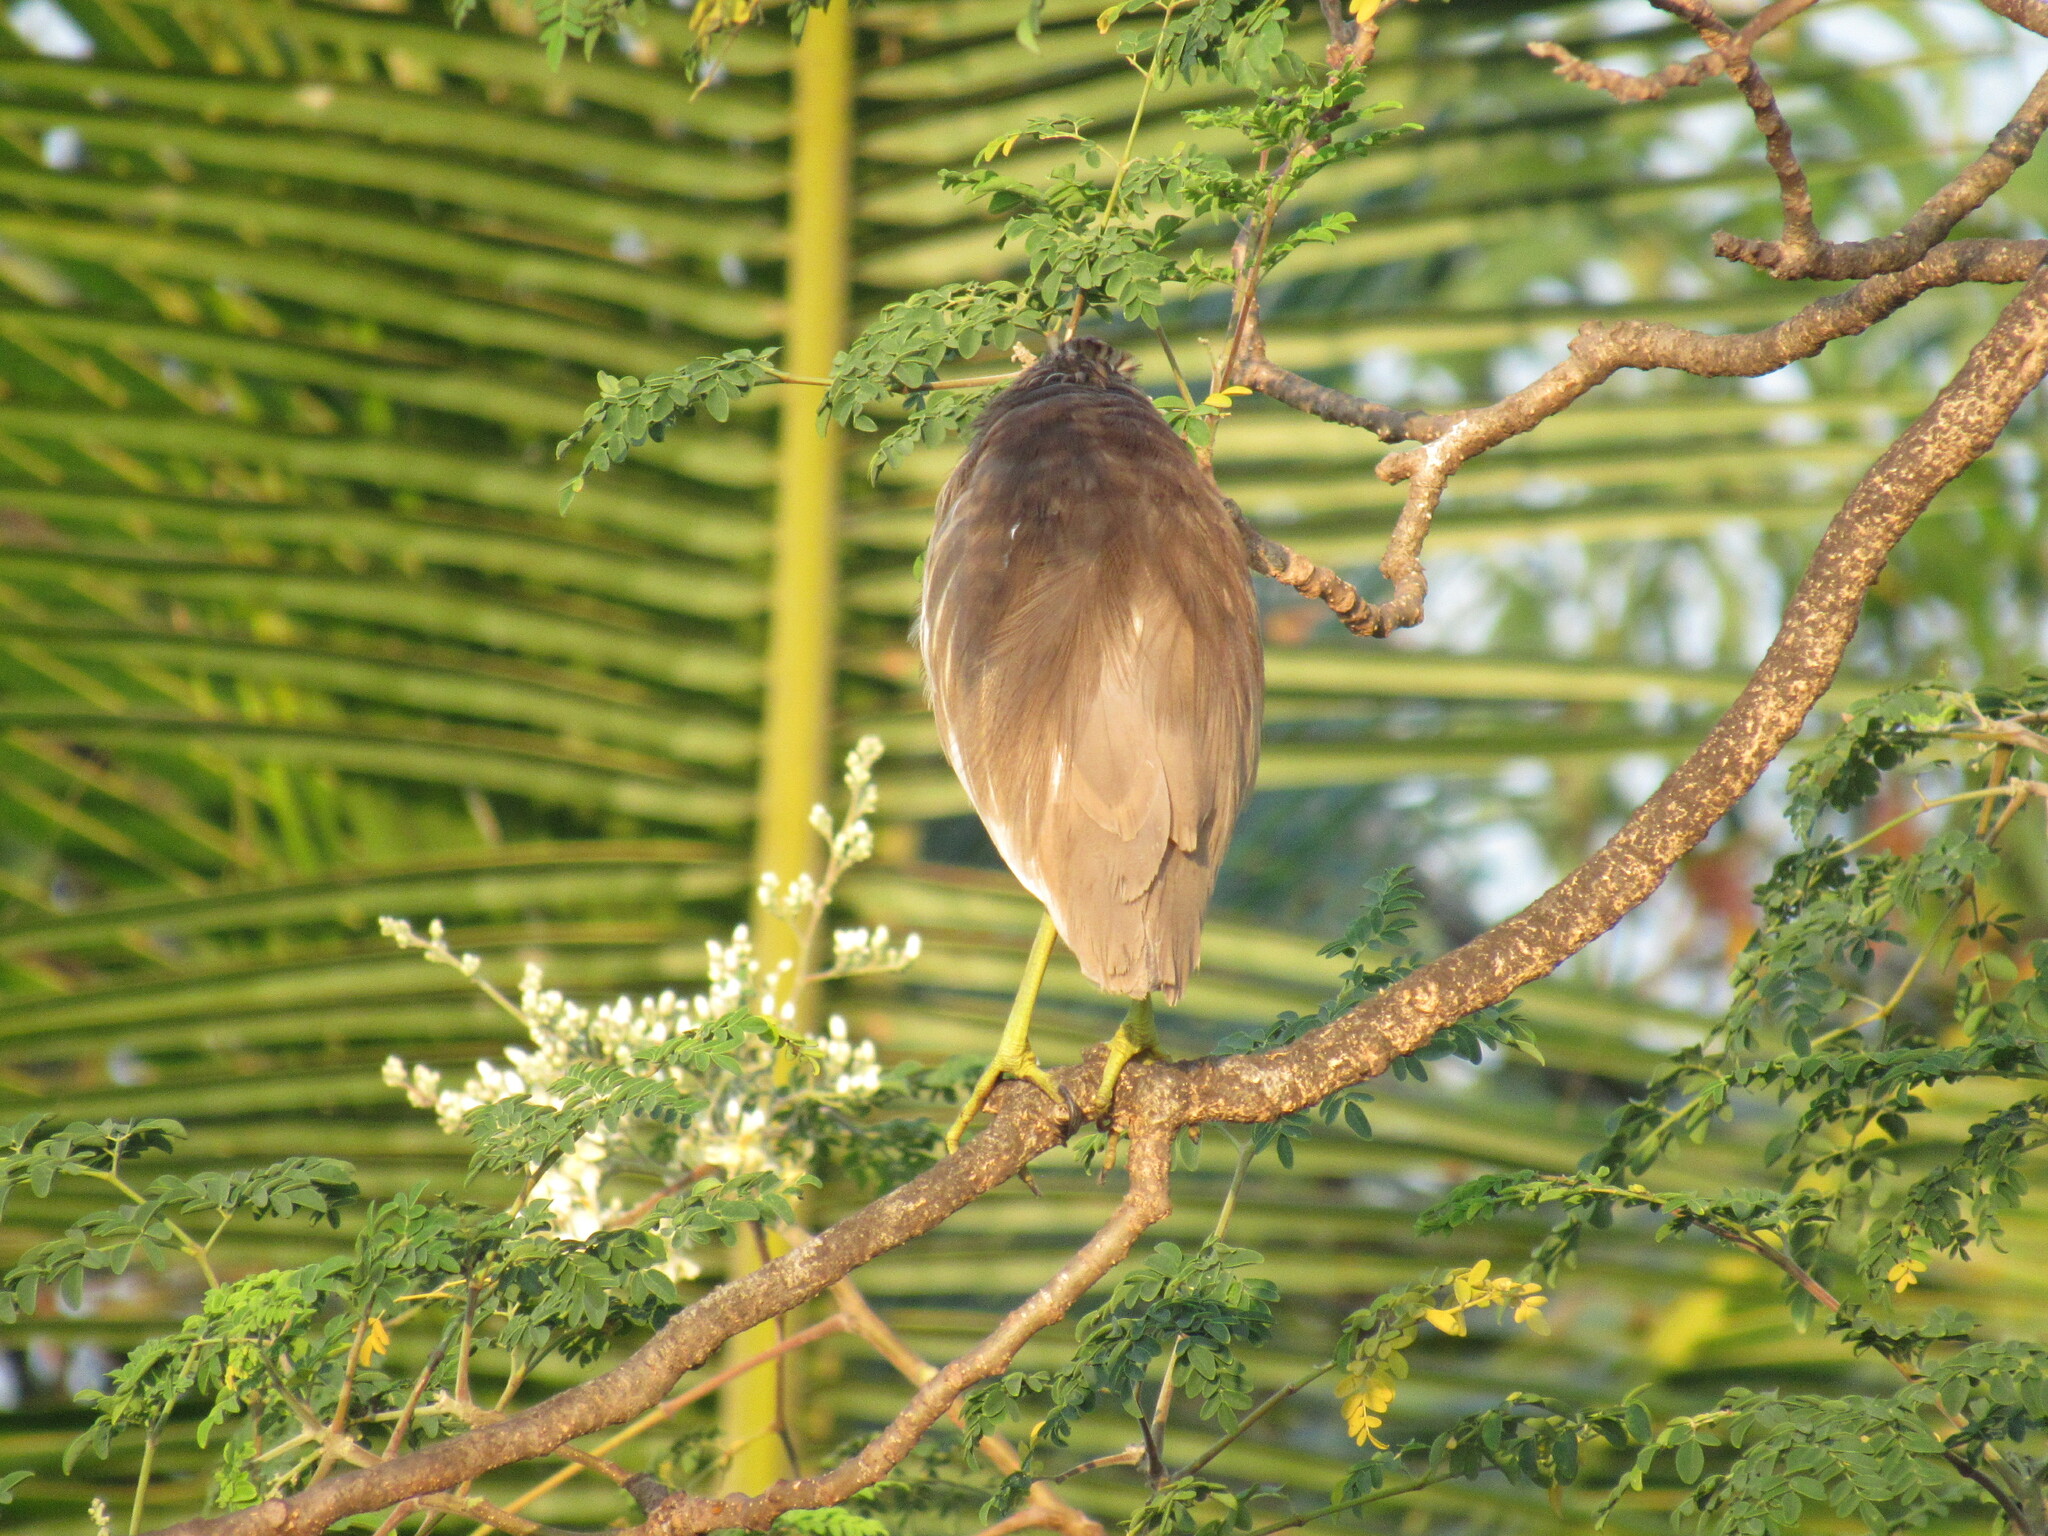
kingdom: Animalia
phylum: Chordata
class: Aves
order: Pelecaniformes
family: Ardeidae
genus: Ardeola
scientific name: Ardeola grayii
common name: Indian pond heron
